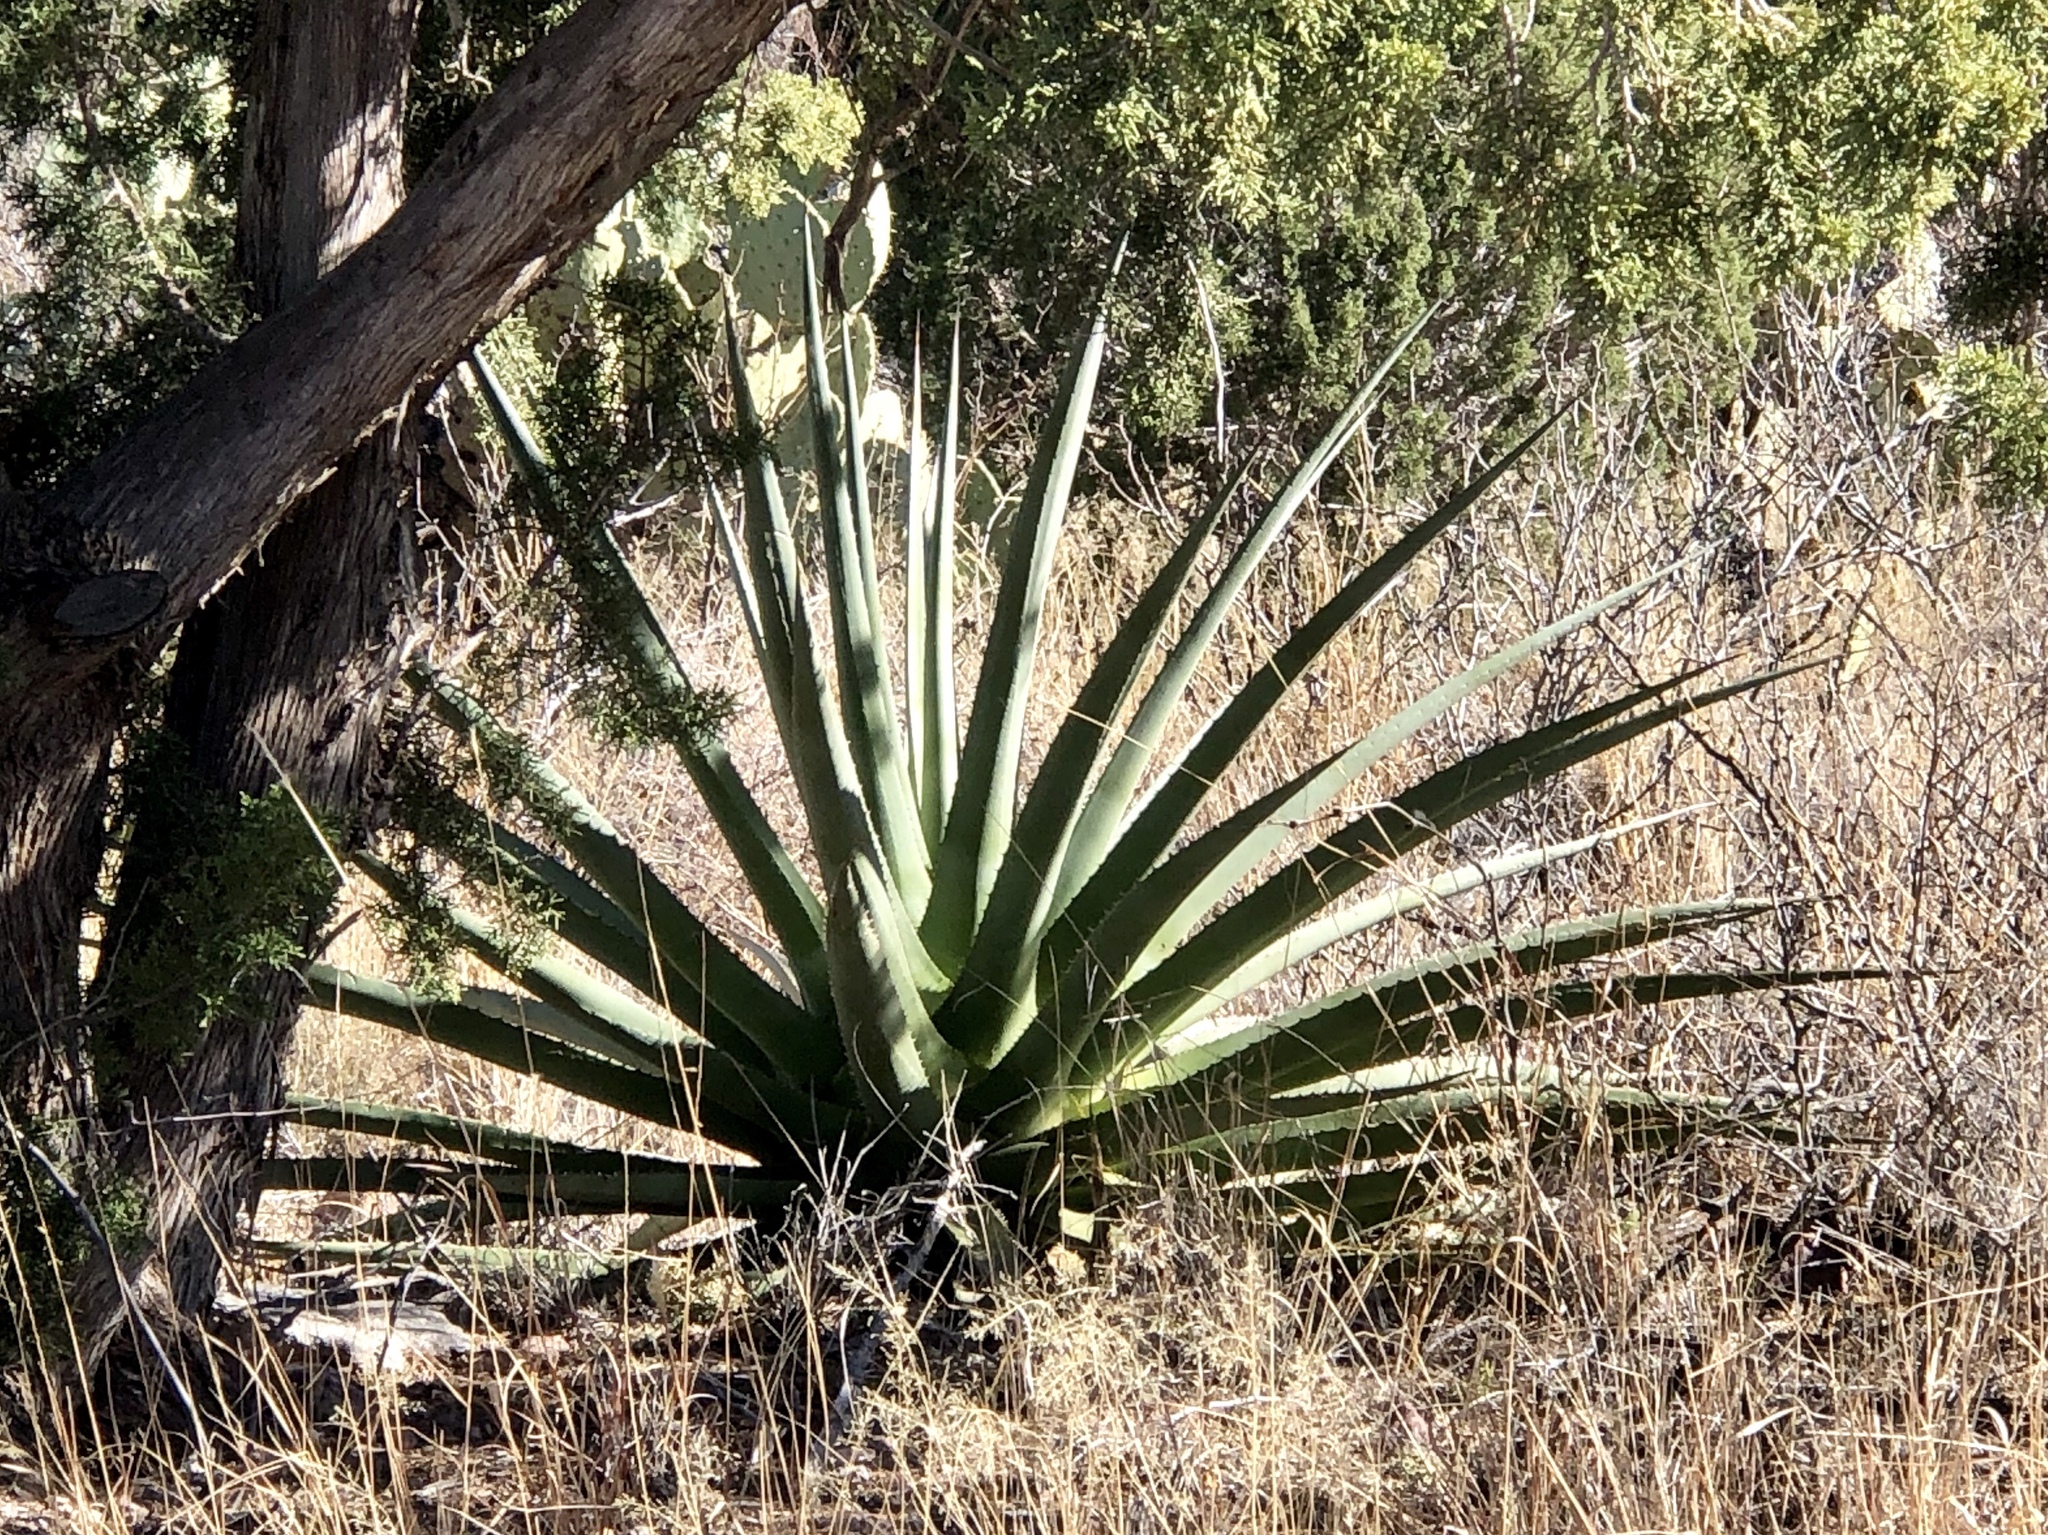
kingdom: Plantae
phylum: Tracheophyta
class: Liliopsida
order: Asparagales
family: Asparagaceae
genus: Agave
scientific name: Agave palmeri
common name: Palmer agave
